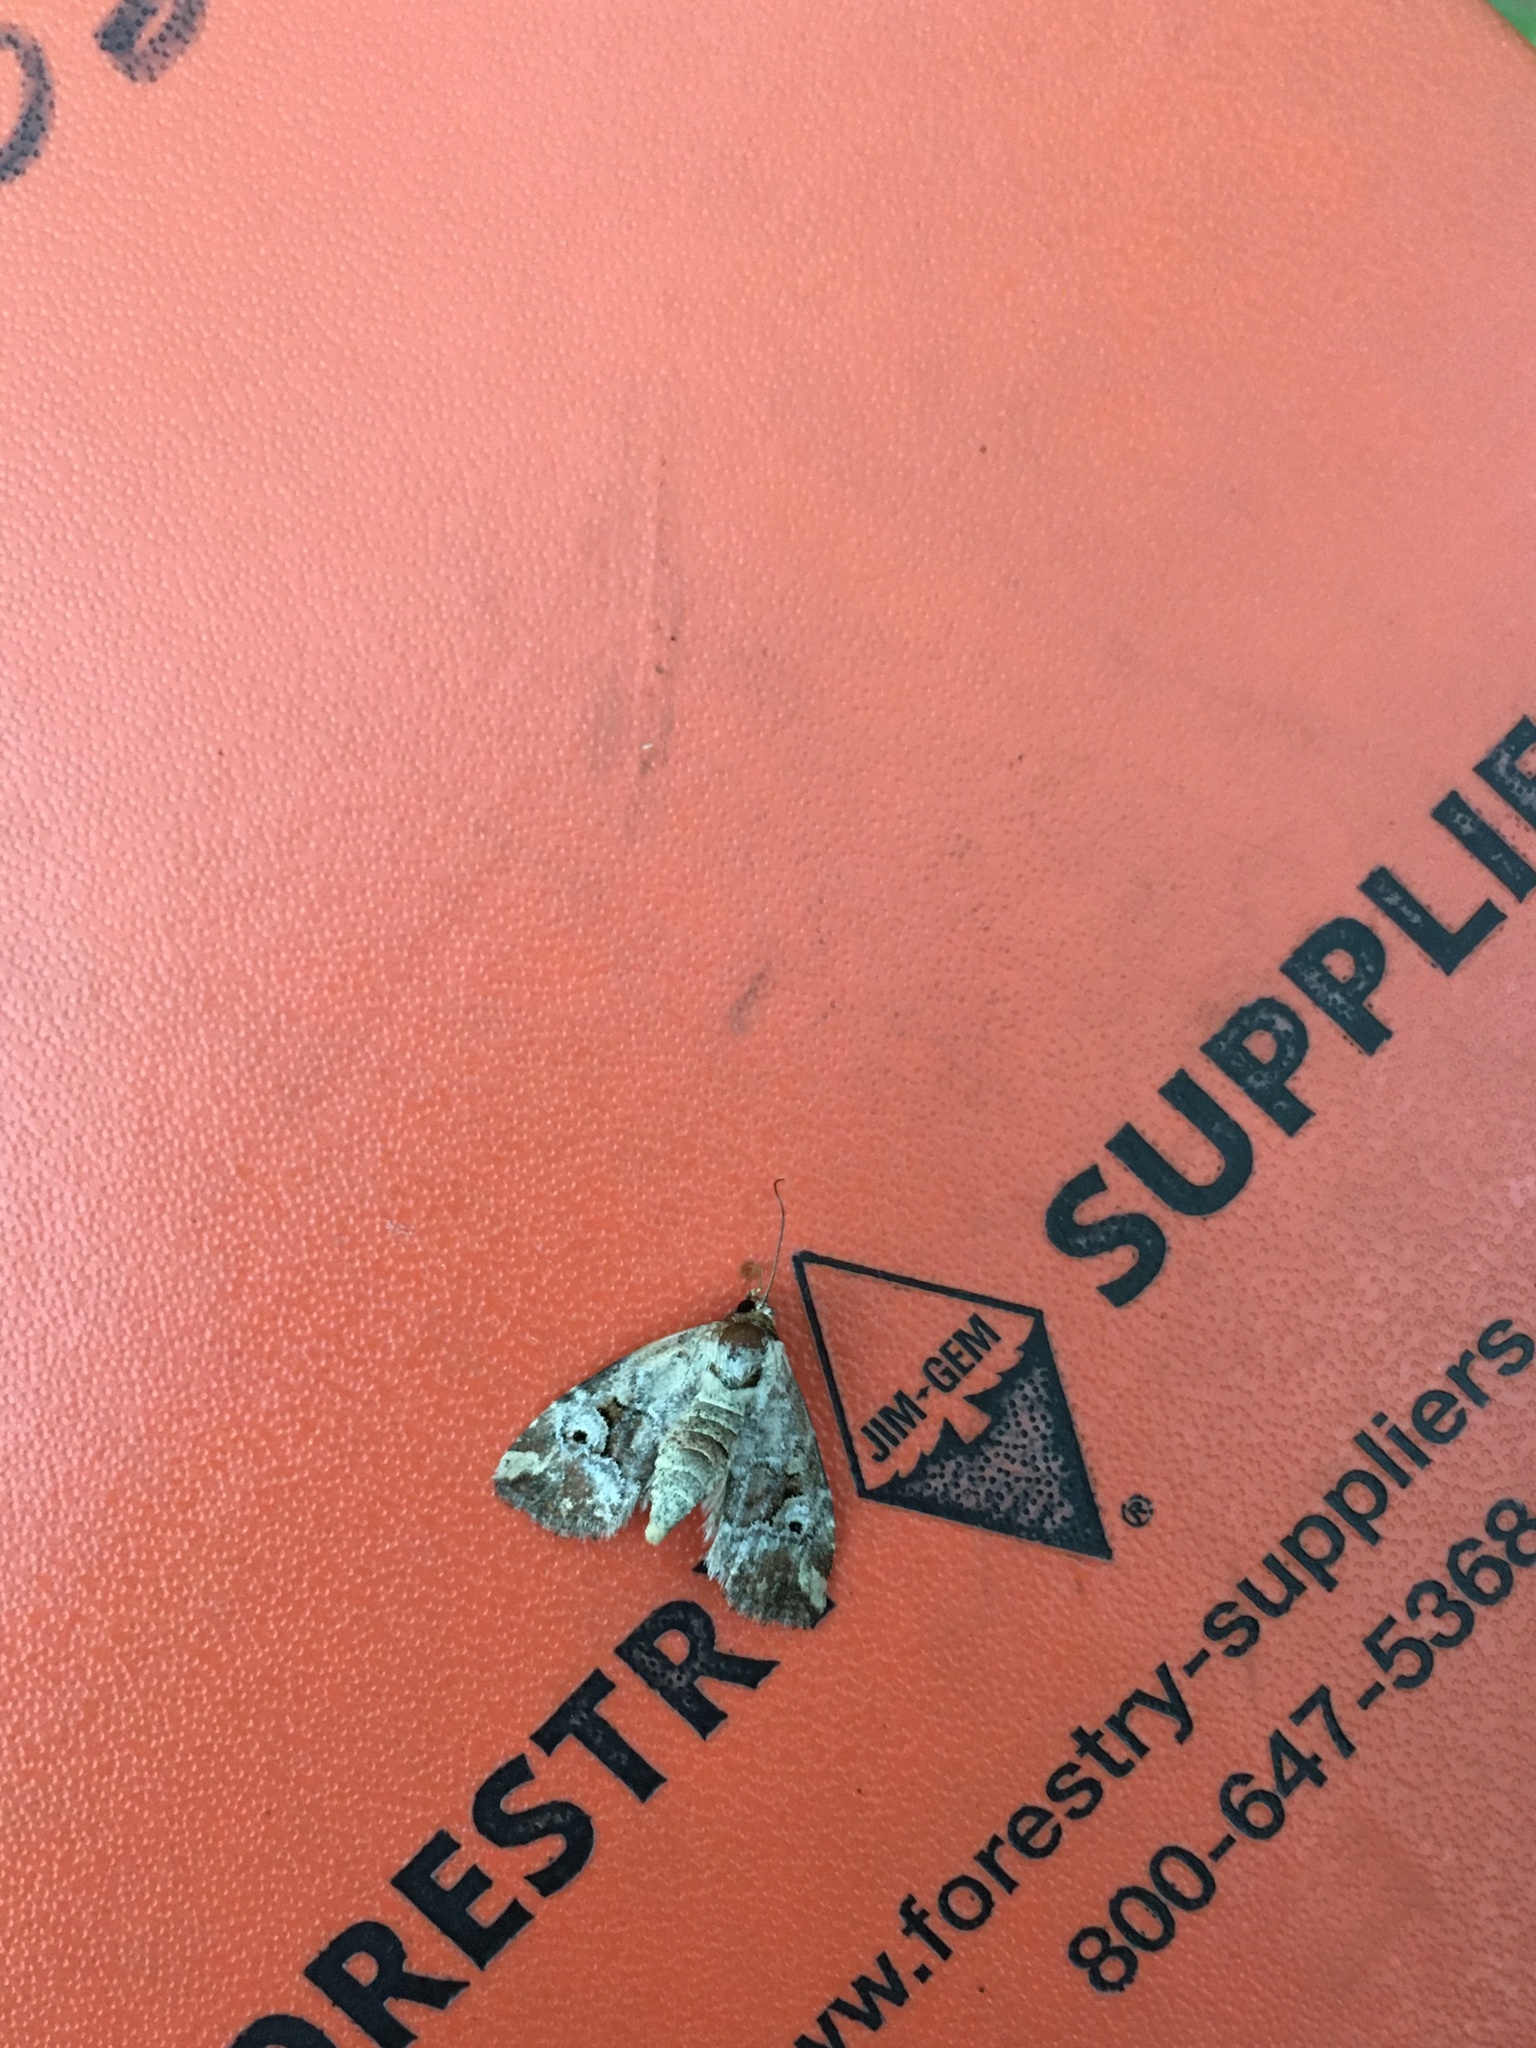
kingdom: Animalia
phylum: Arthropoda
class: Insecta
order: Lepidoptera
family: Noctuidae
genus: Elaphria
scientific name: Elaphria alapallida
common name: Pale-winged midget
